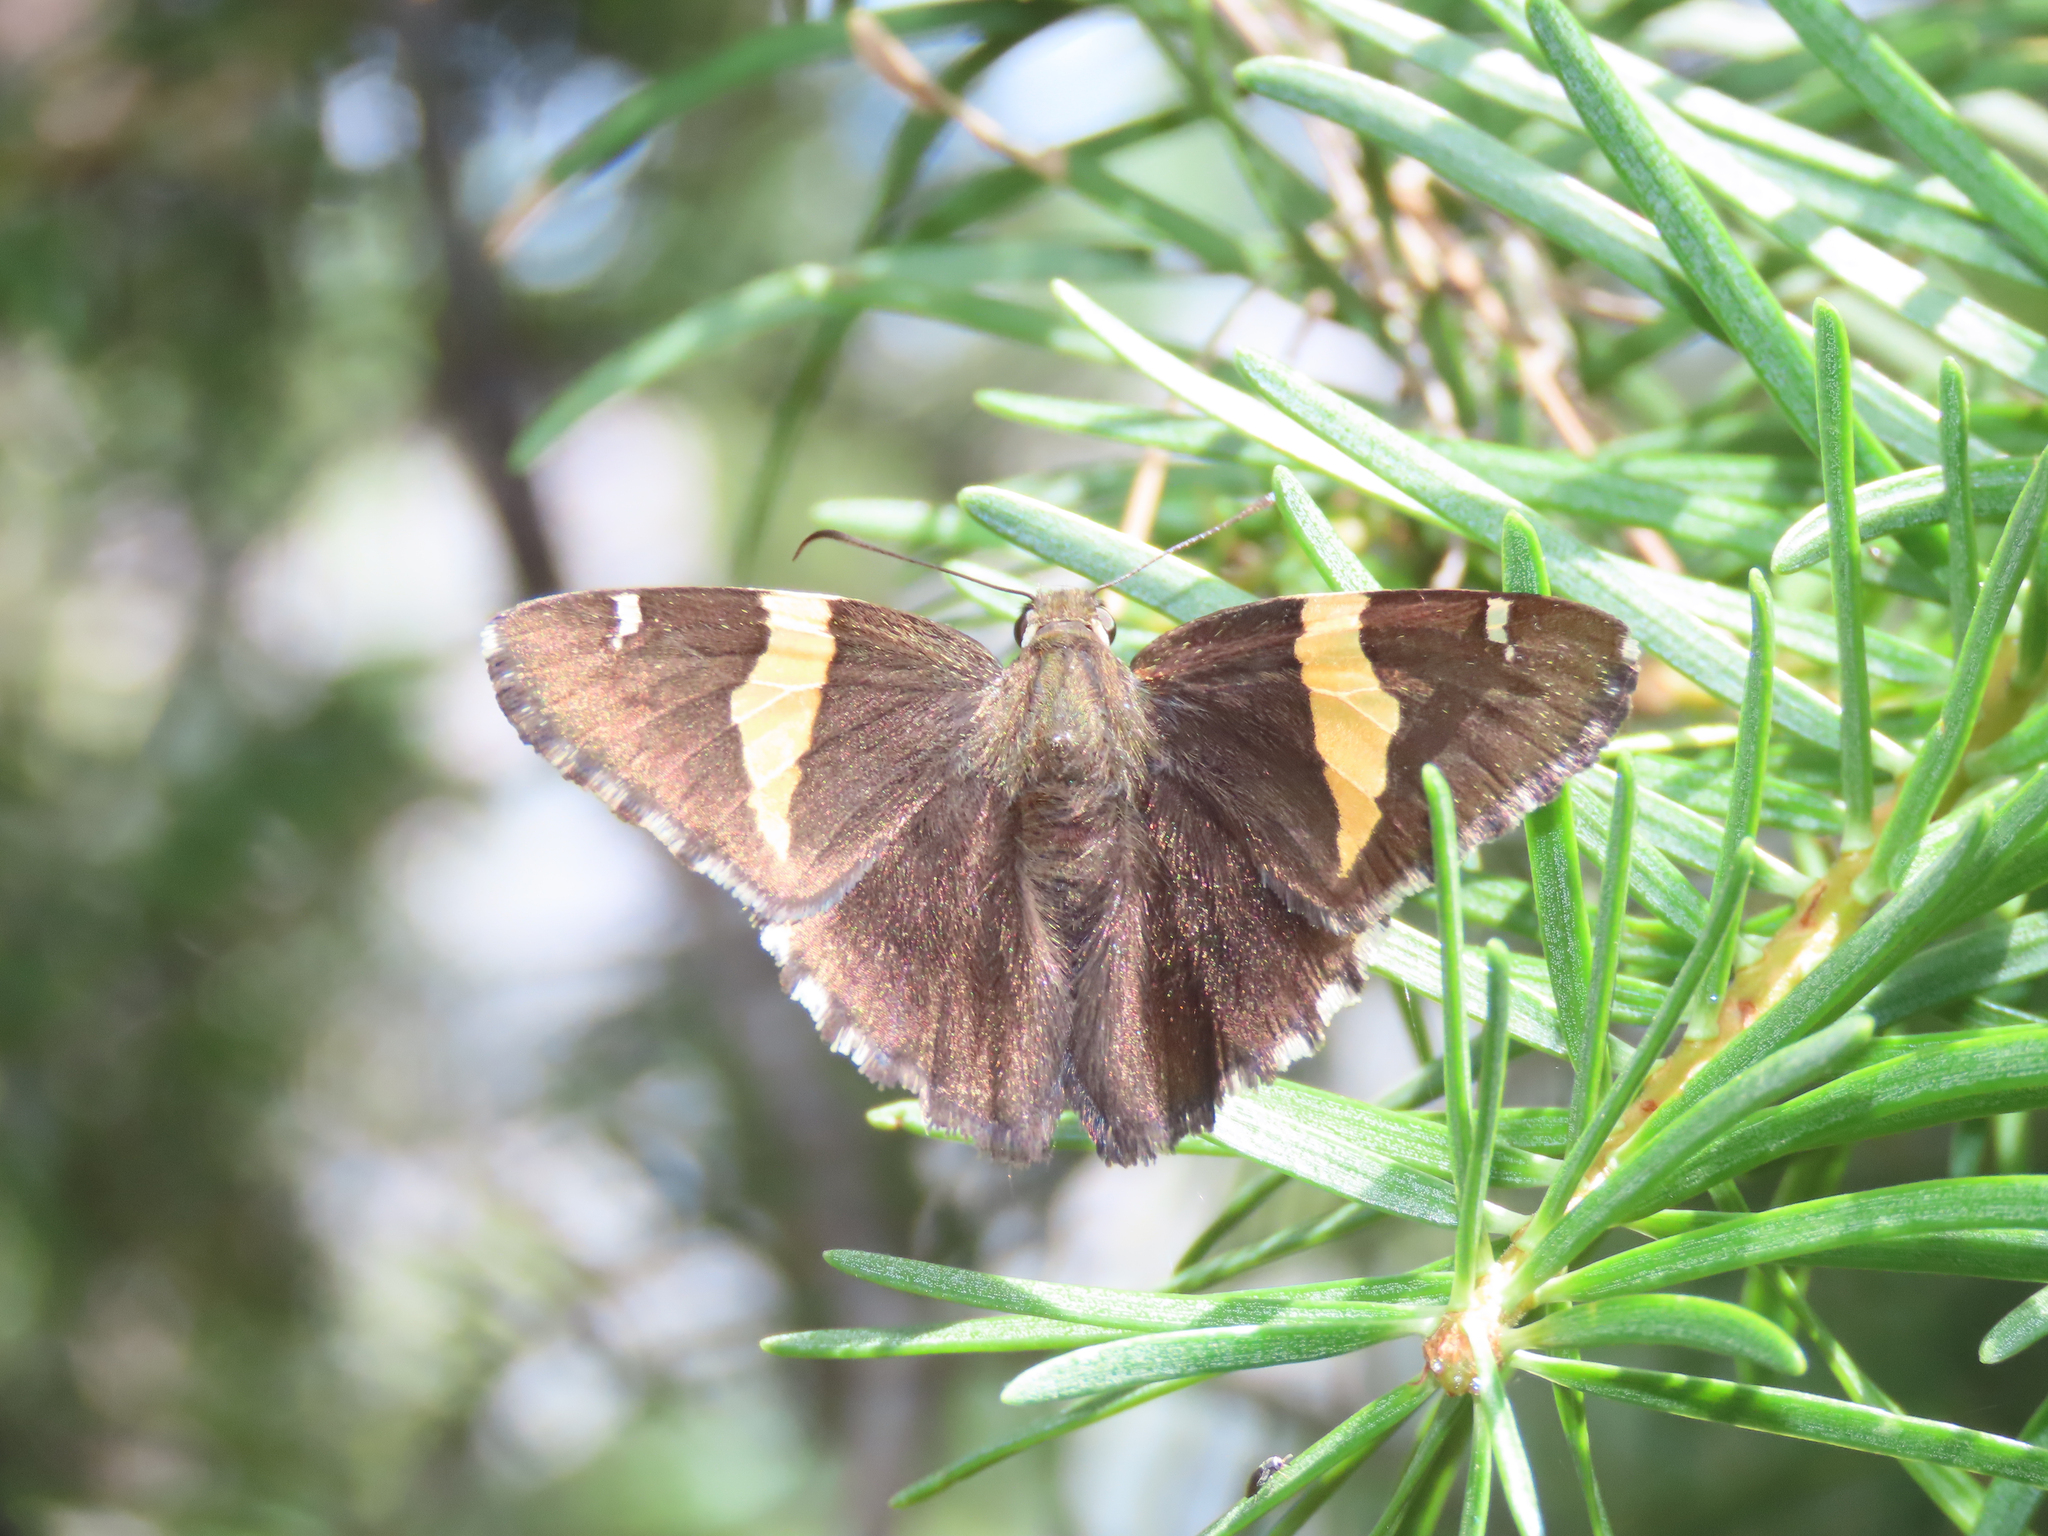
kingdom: Animalia
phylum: Arthropoda
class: Arachnida
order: Scorpiones
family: Bothriuridae
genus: Telegonus
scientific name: Telegonus cellus
